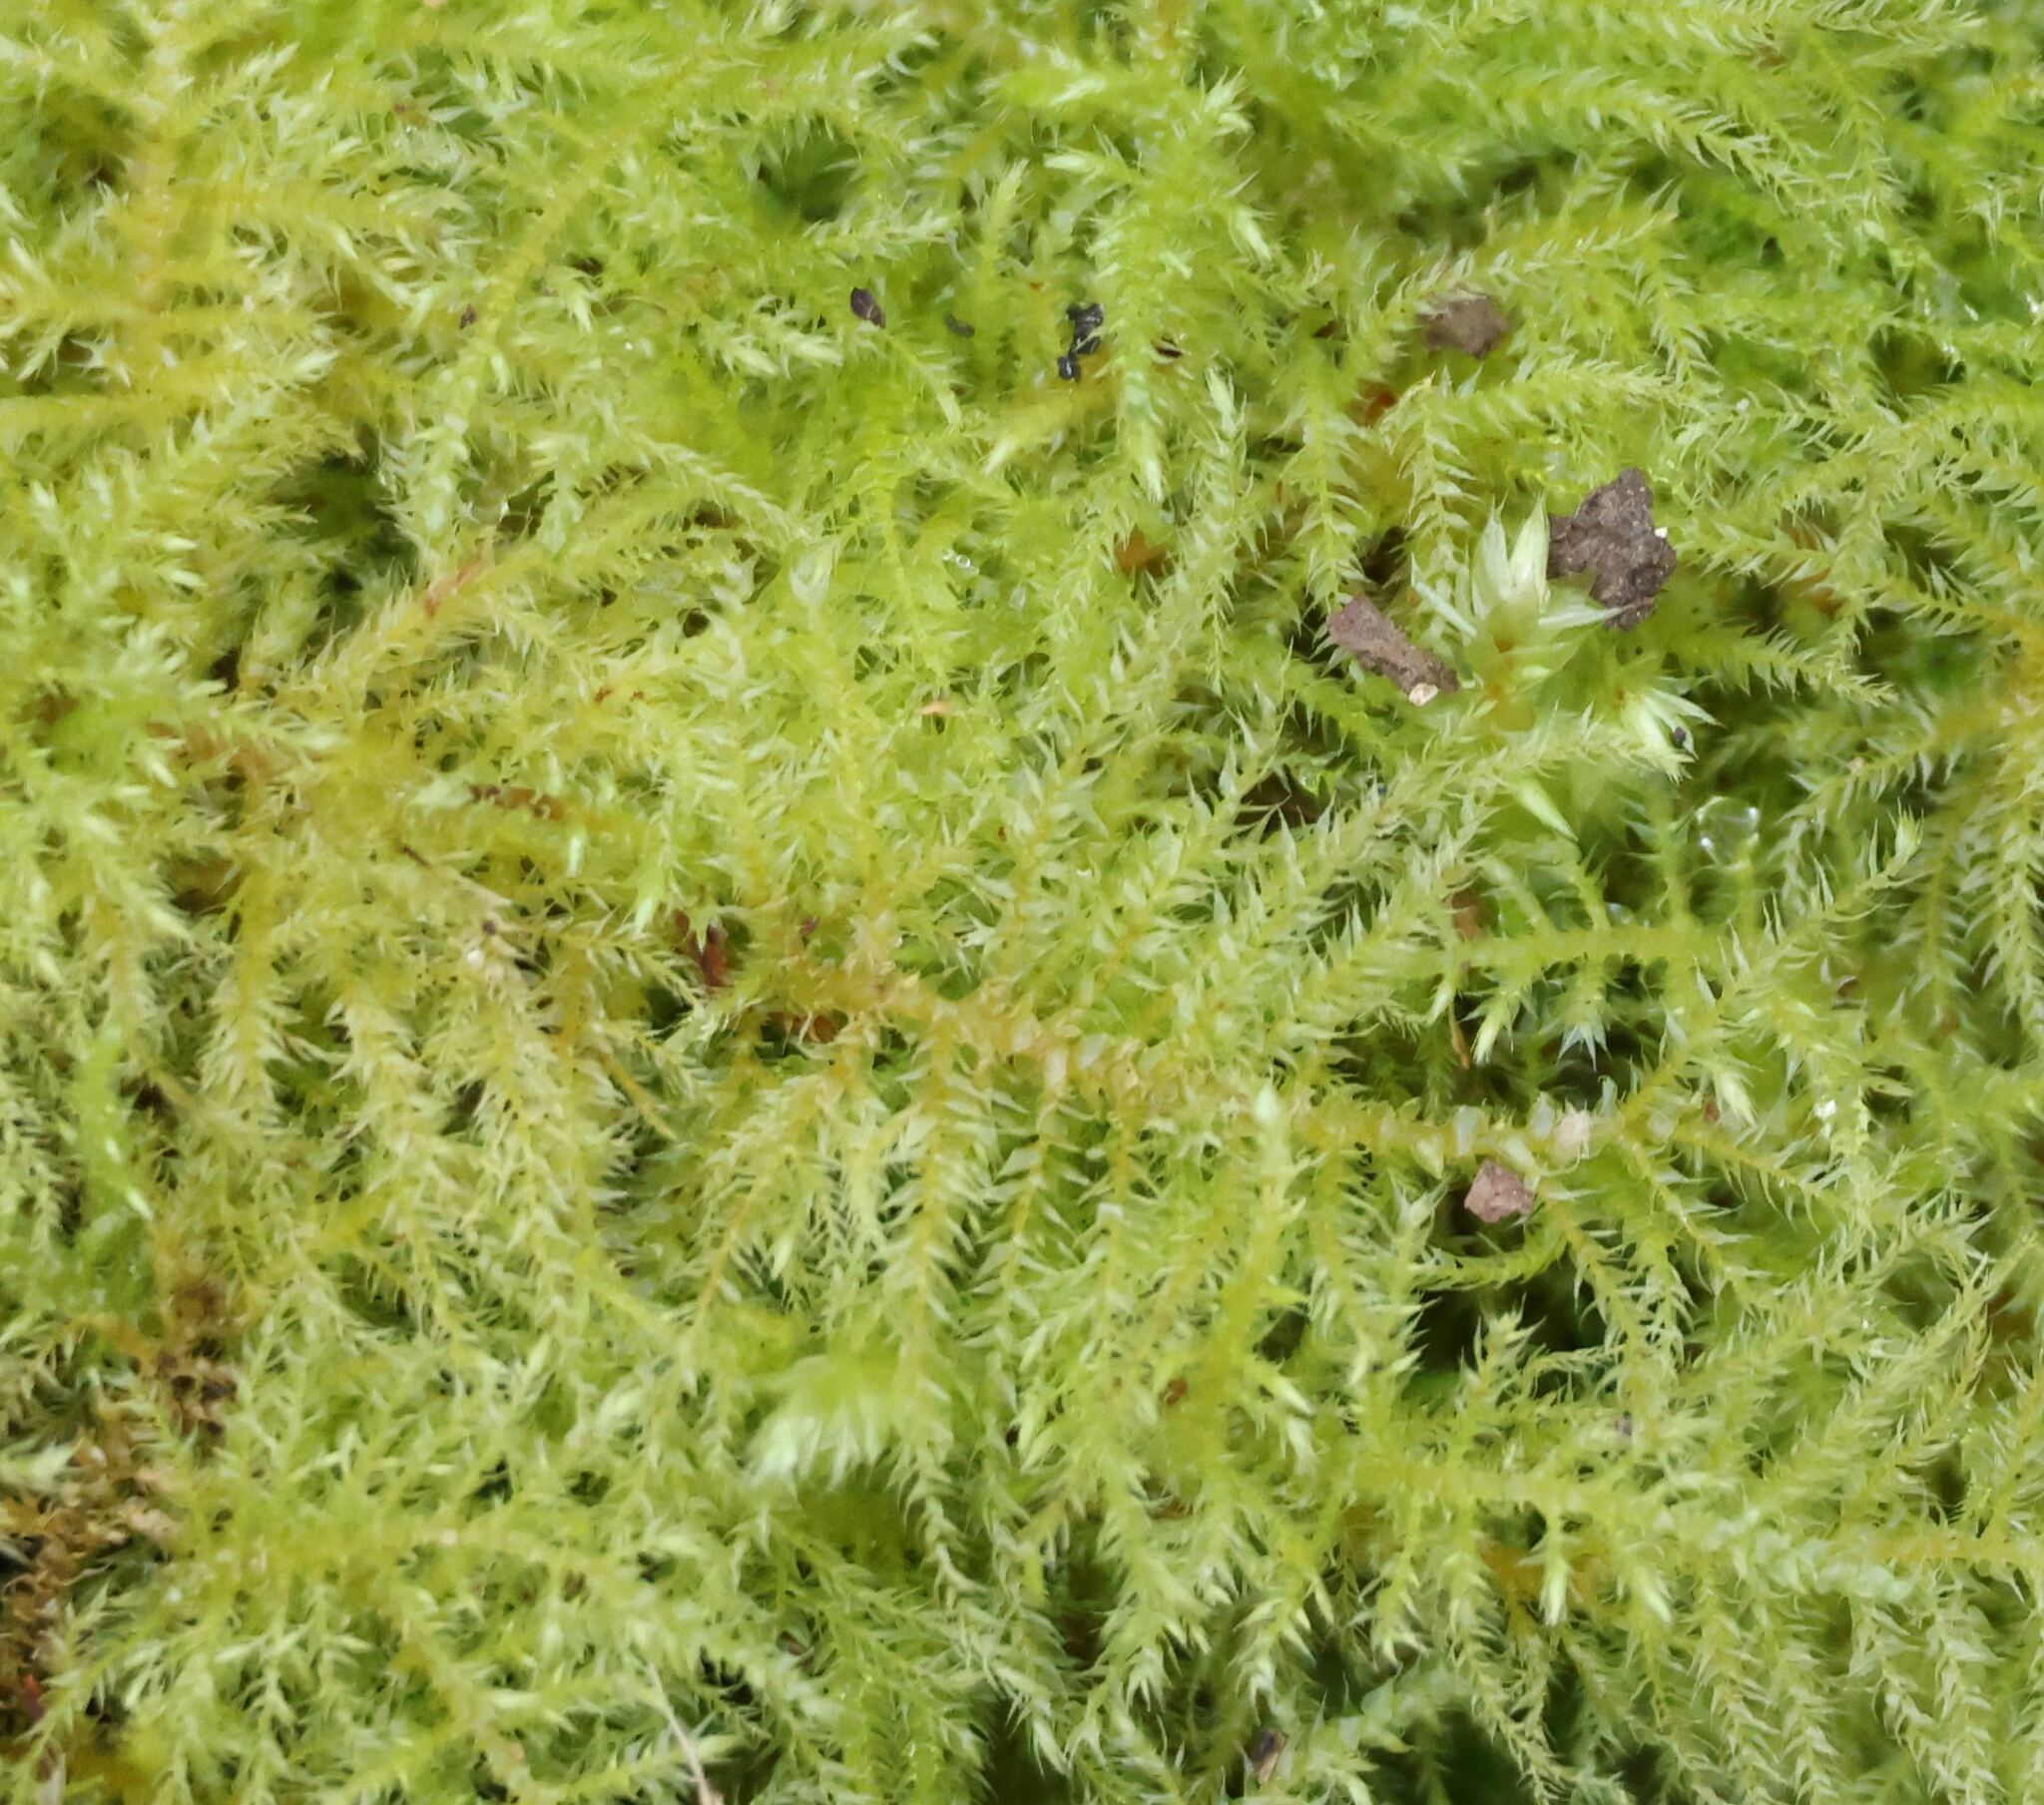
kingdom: Plantae
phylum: Bryophyta
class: Bryopsida
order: Hypnales
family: Brachytheciaceae
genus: Kindbergia
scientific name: Kindbergia praelonga
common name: Slender beaked moss
